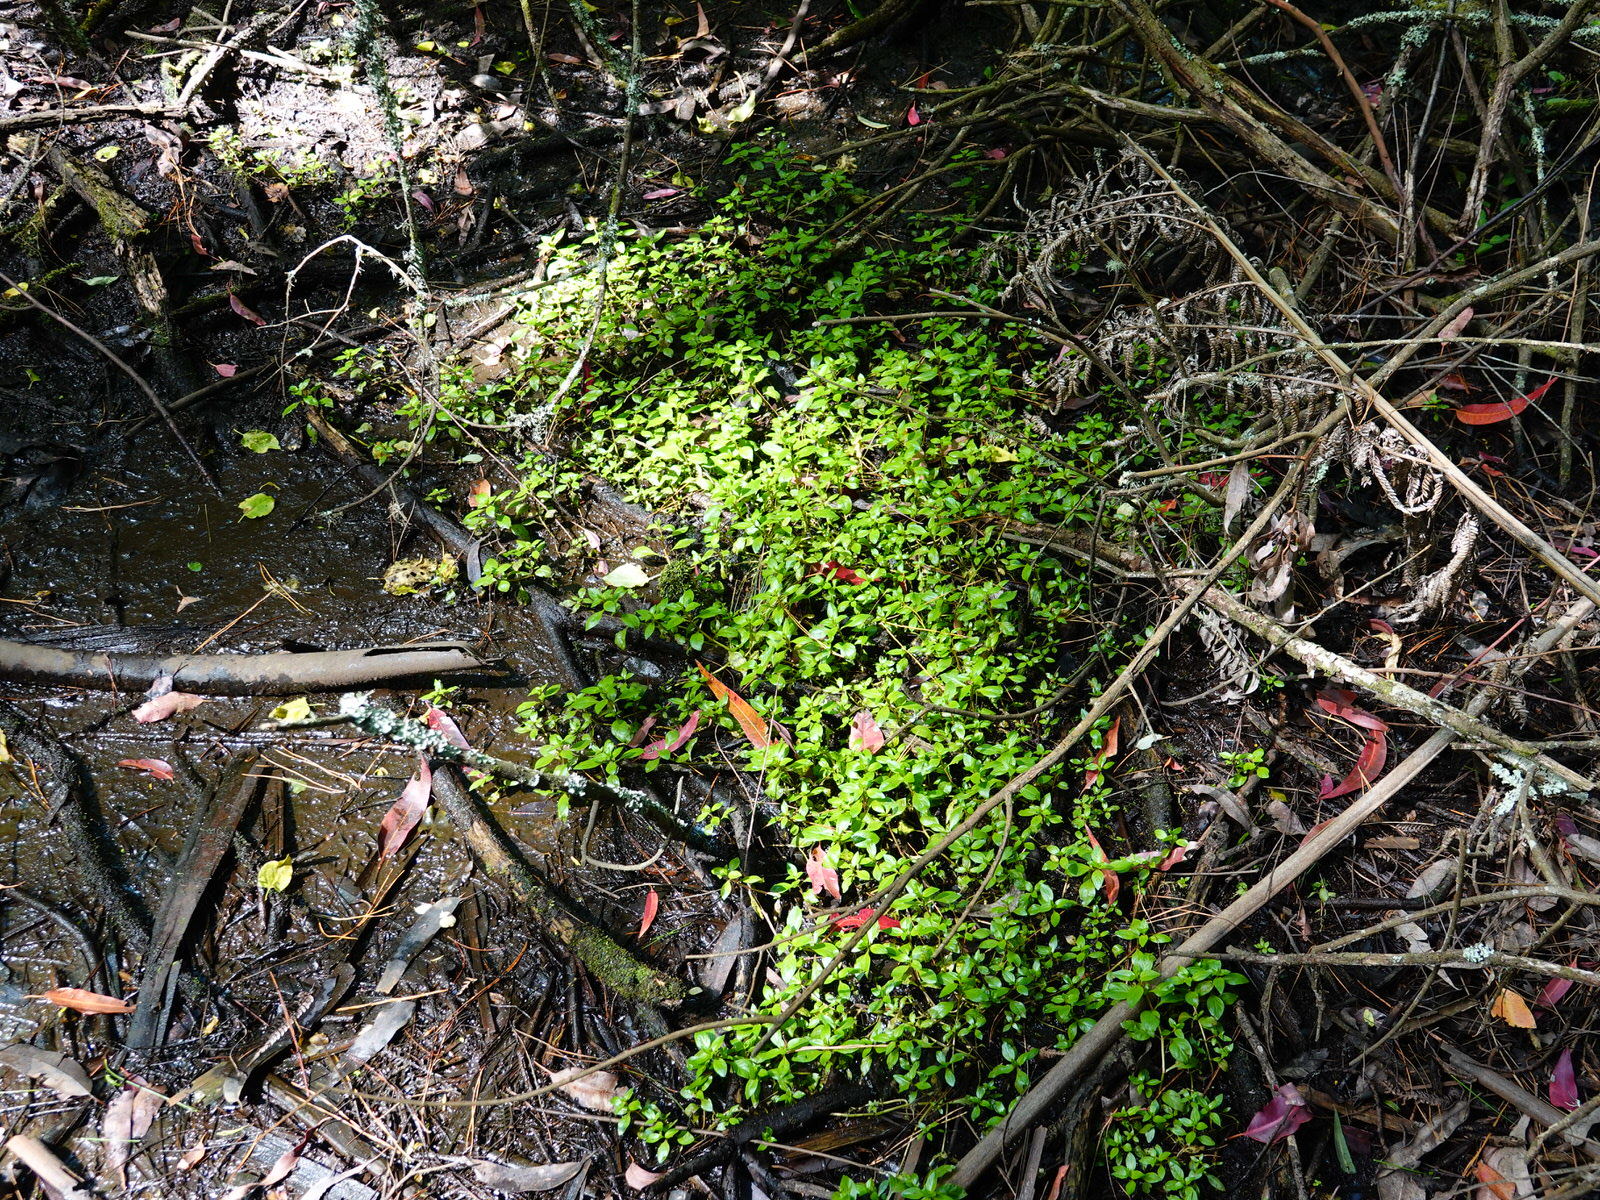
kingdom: Plantae
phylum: Tracheophyta
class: Magnoliopsida
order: Myrtales
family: Onagraceae
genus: Ludwigia
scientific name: Ludwigia palustris
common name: Hampshire-purslane
